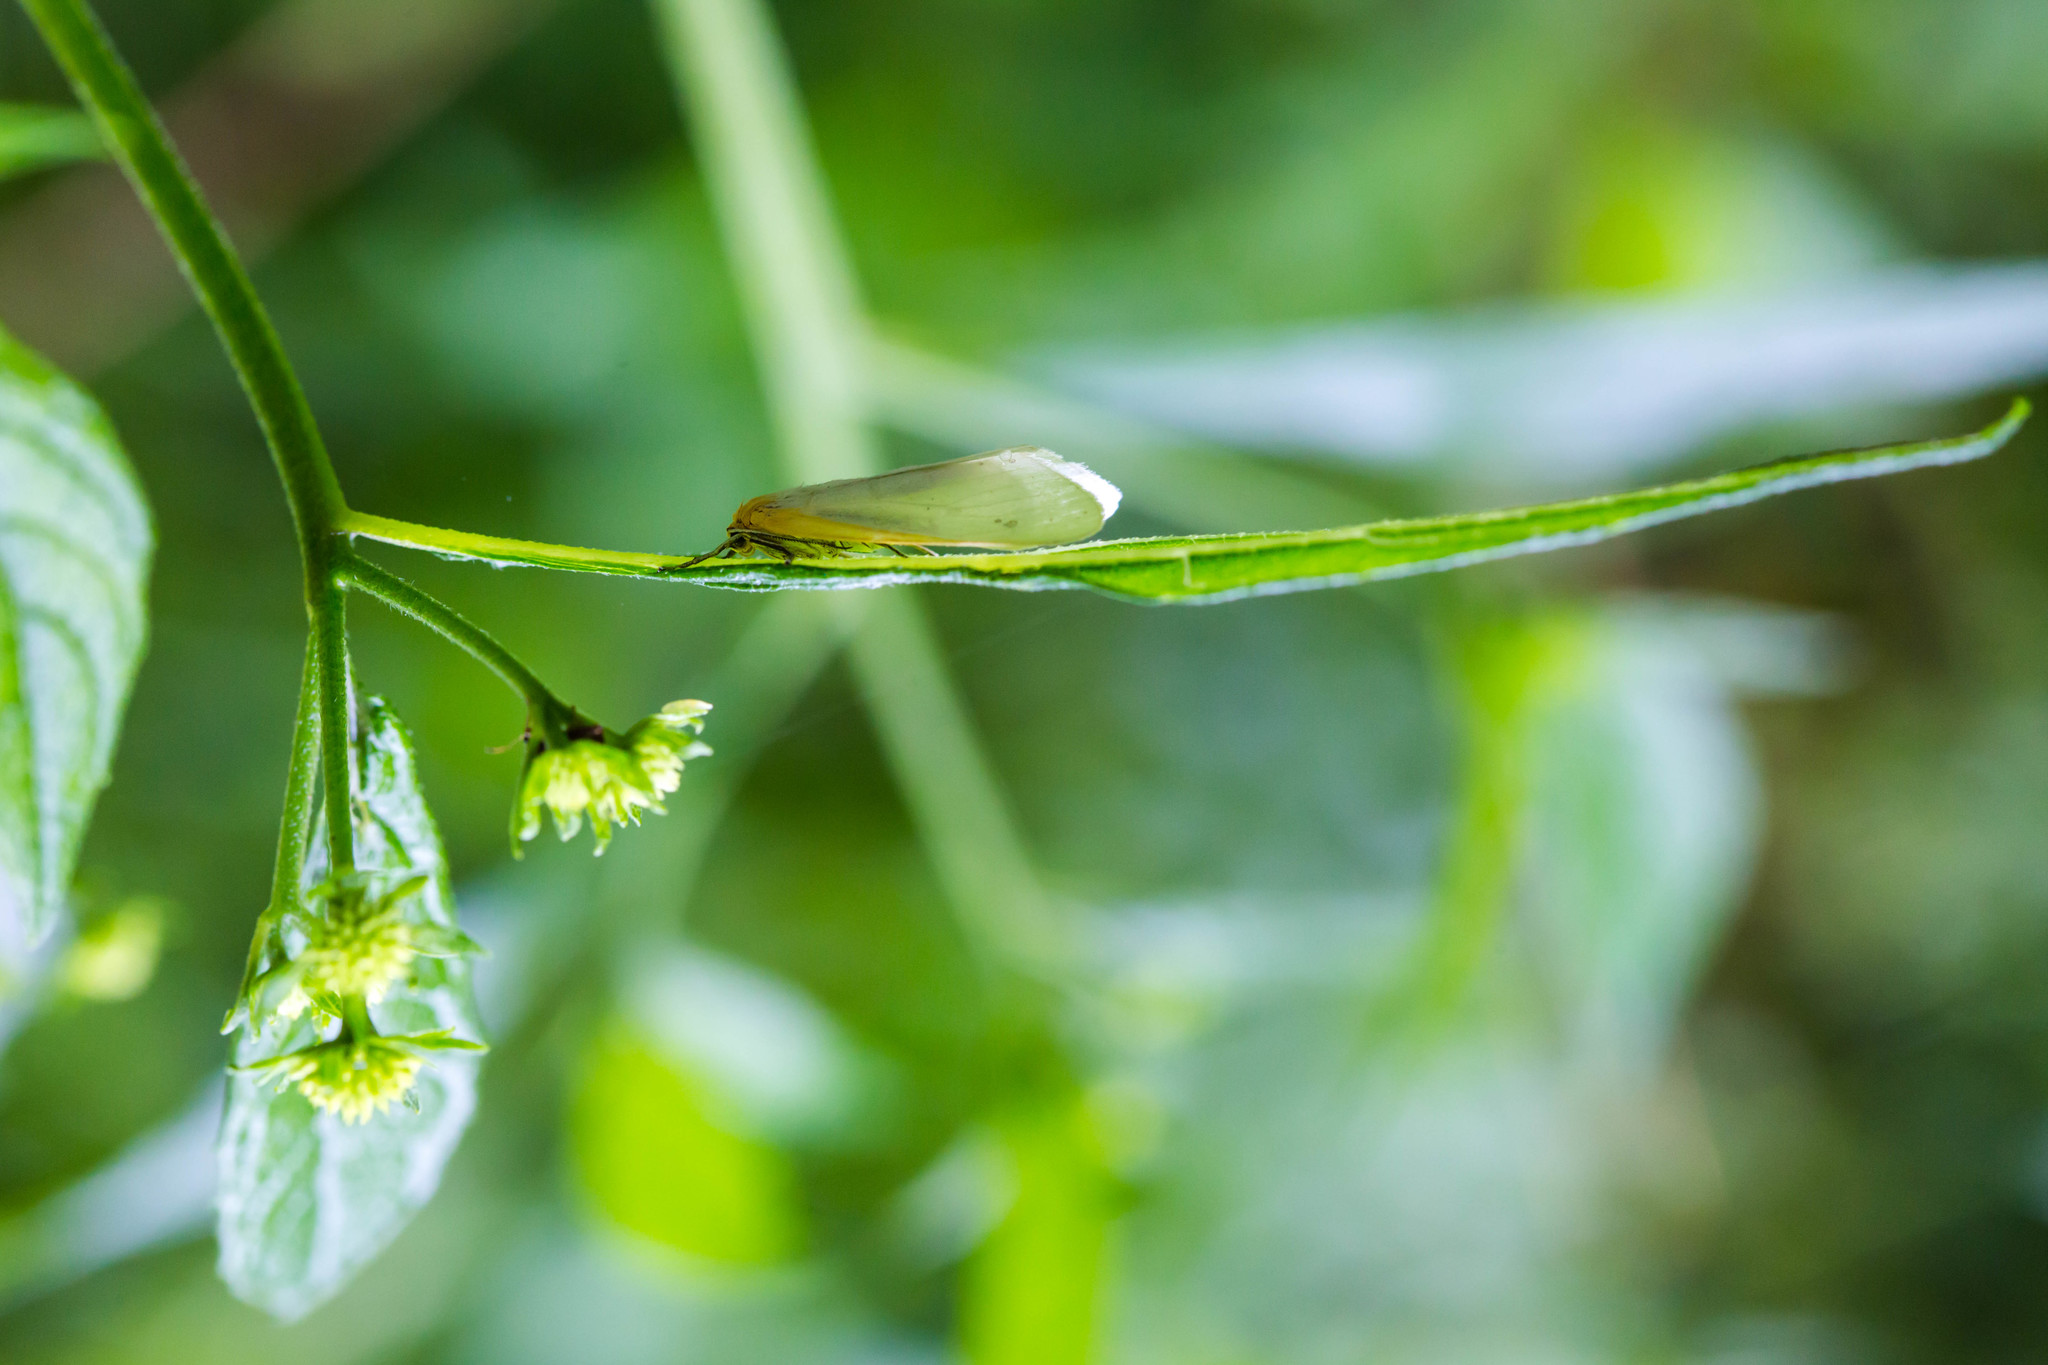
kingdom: Animalia
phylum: Arthropoda
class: Insecta
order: Lepidoptera
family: Erebidae
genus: Cycnia
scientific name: Cycnia tenera
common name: Delicate cycnia moth
